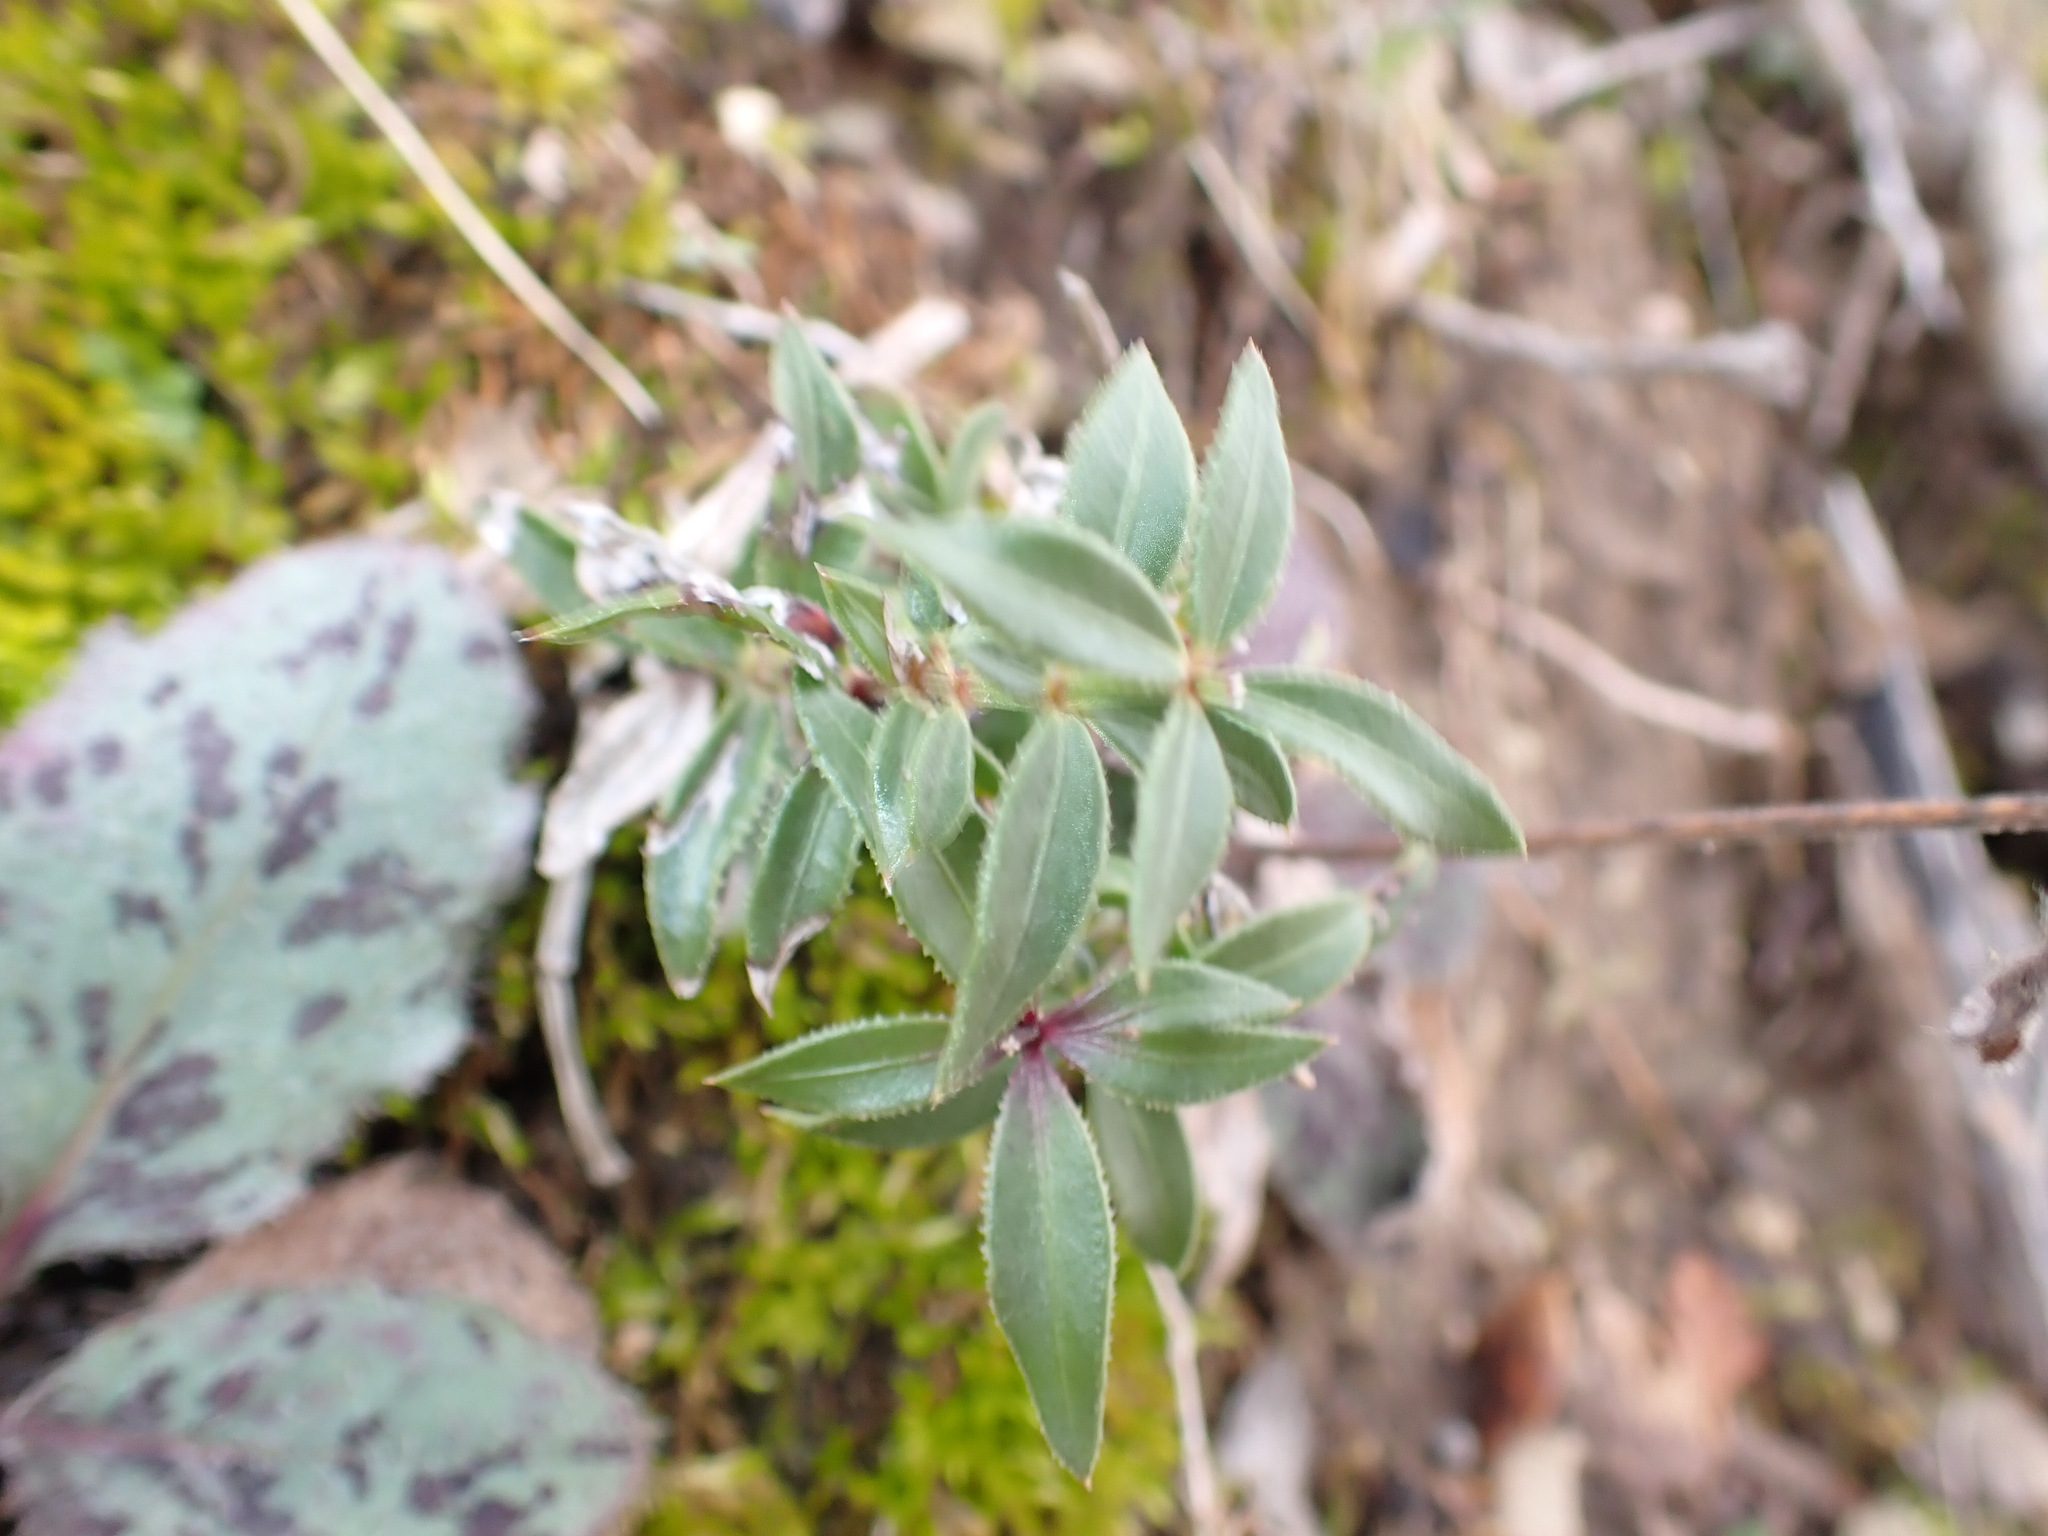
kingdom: Plantae
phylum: Tracheophyta
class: Magnoliopsida
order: Gentianales
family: Rubiaceae
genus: Rubia
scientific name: Rubia peregrina
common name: Wild madder
